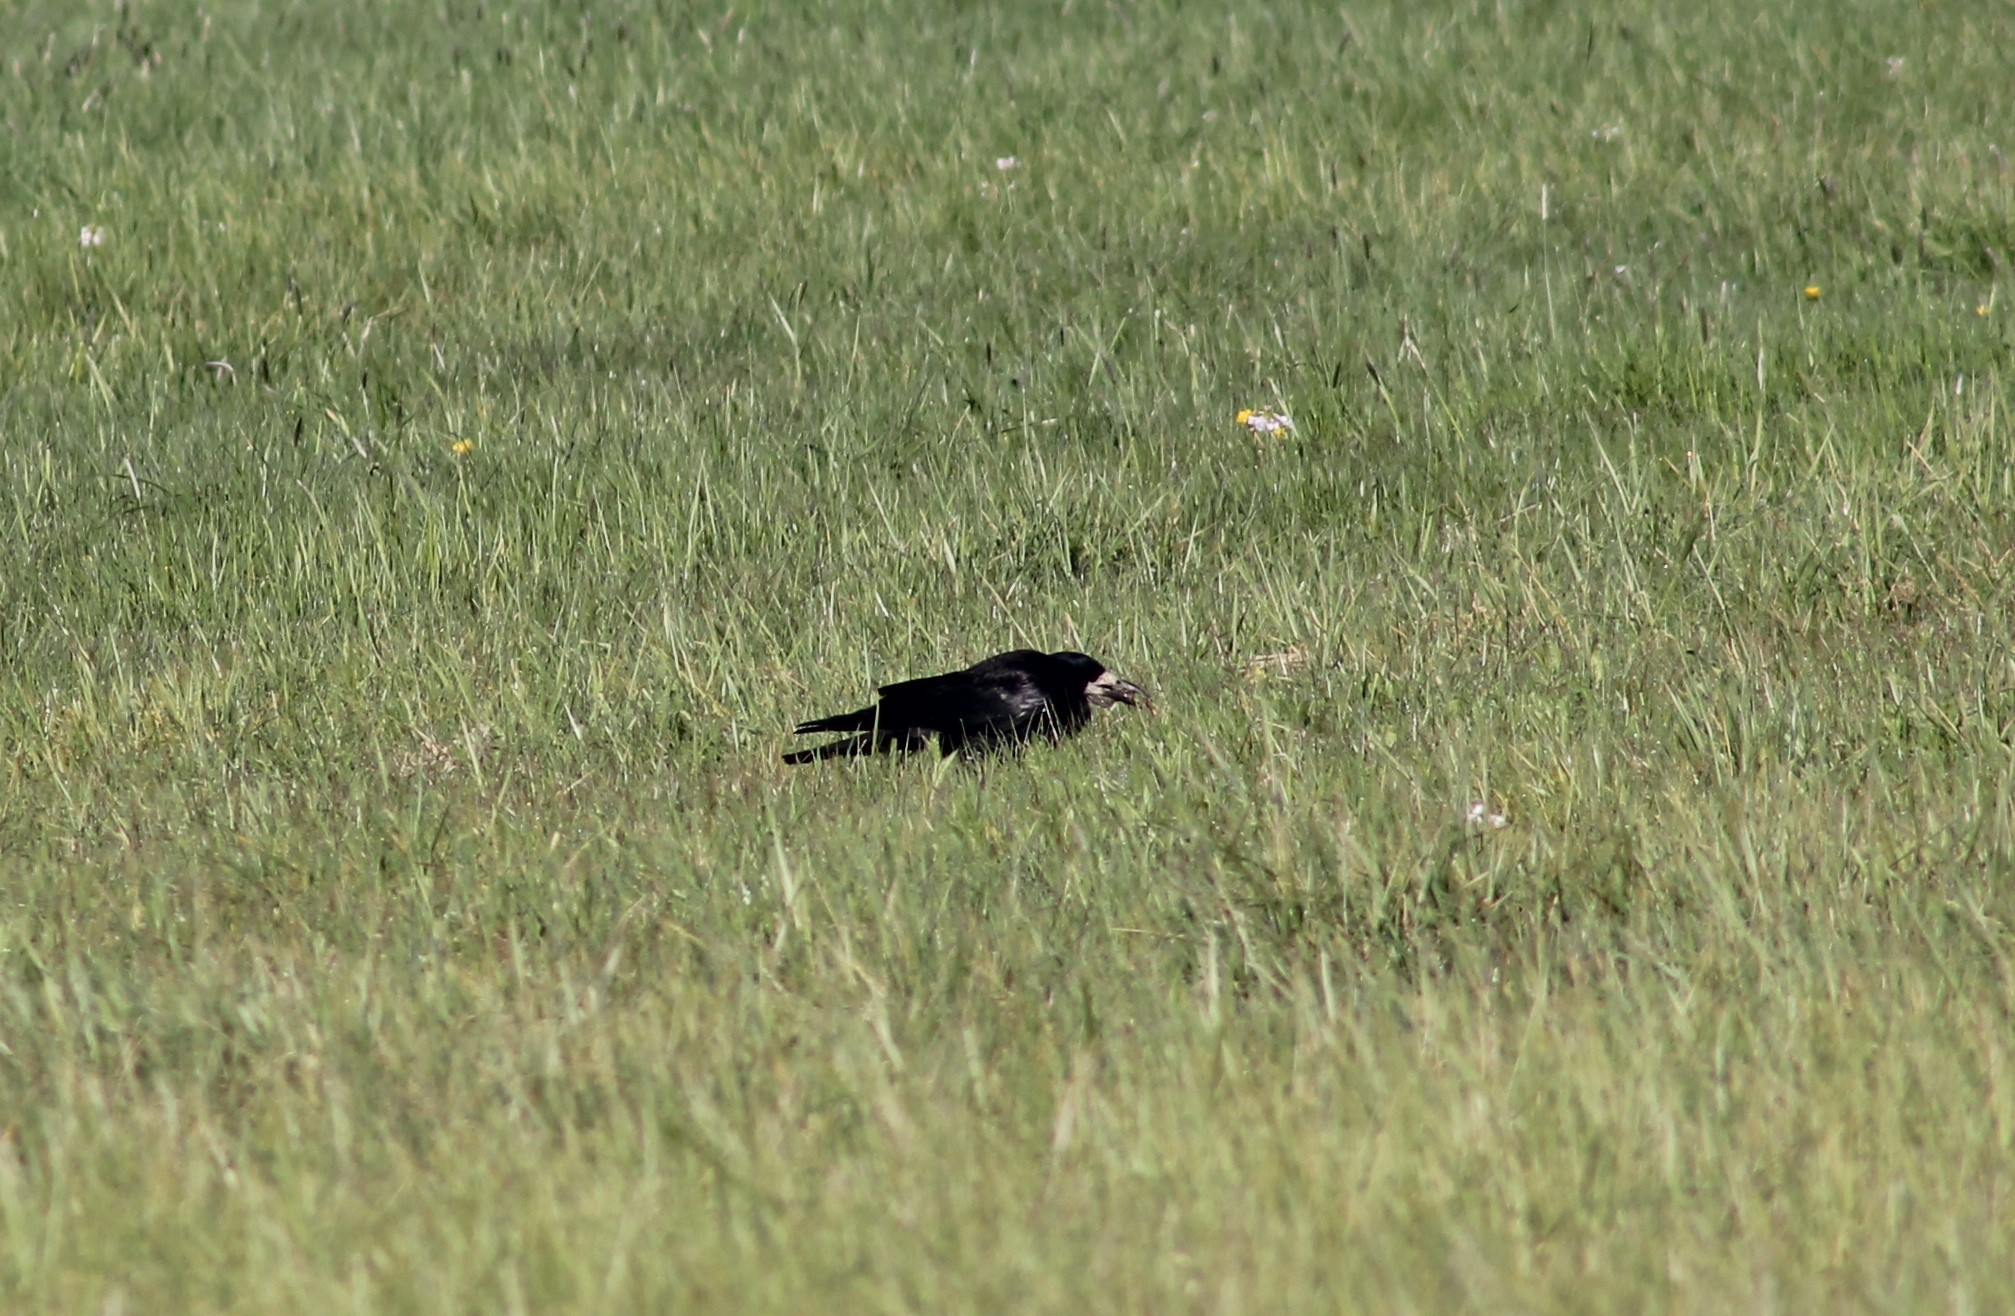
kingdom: Animalia
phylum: Chordata
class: Aves
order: Passeriformes
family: Corvidae
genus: Corvus
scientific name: Corvus frugilegus
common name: Rook
